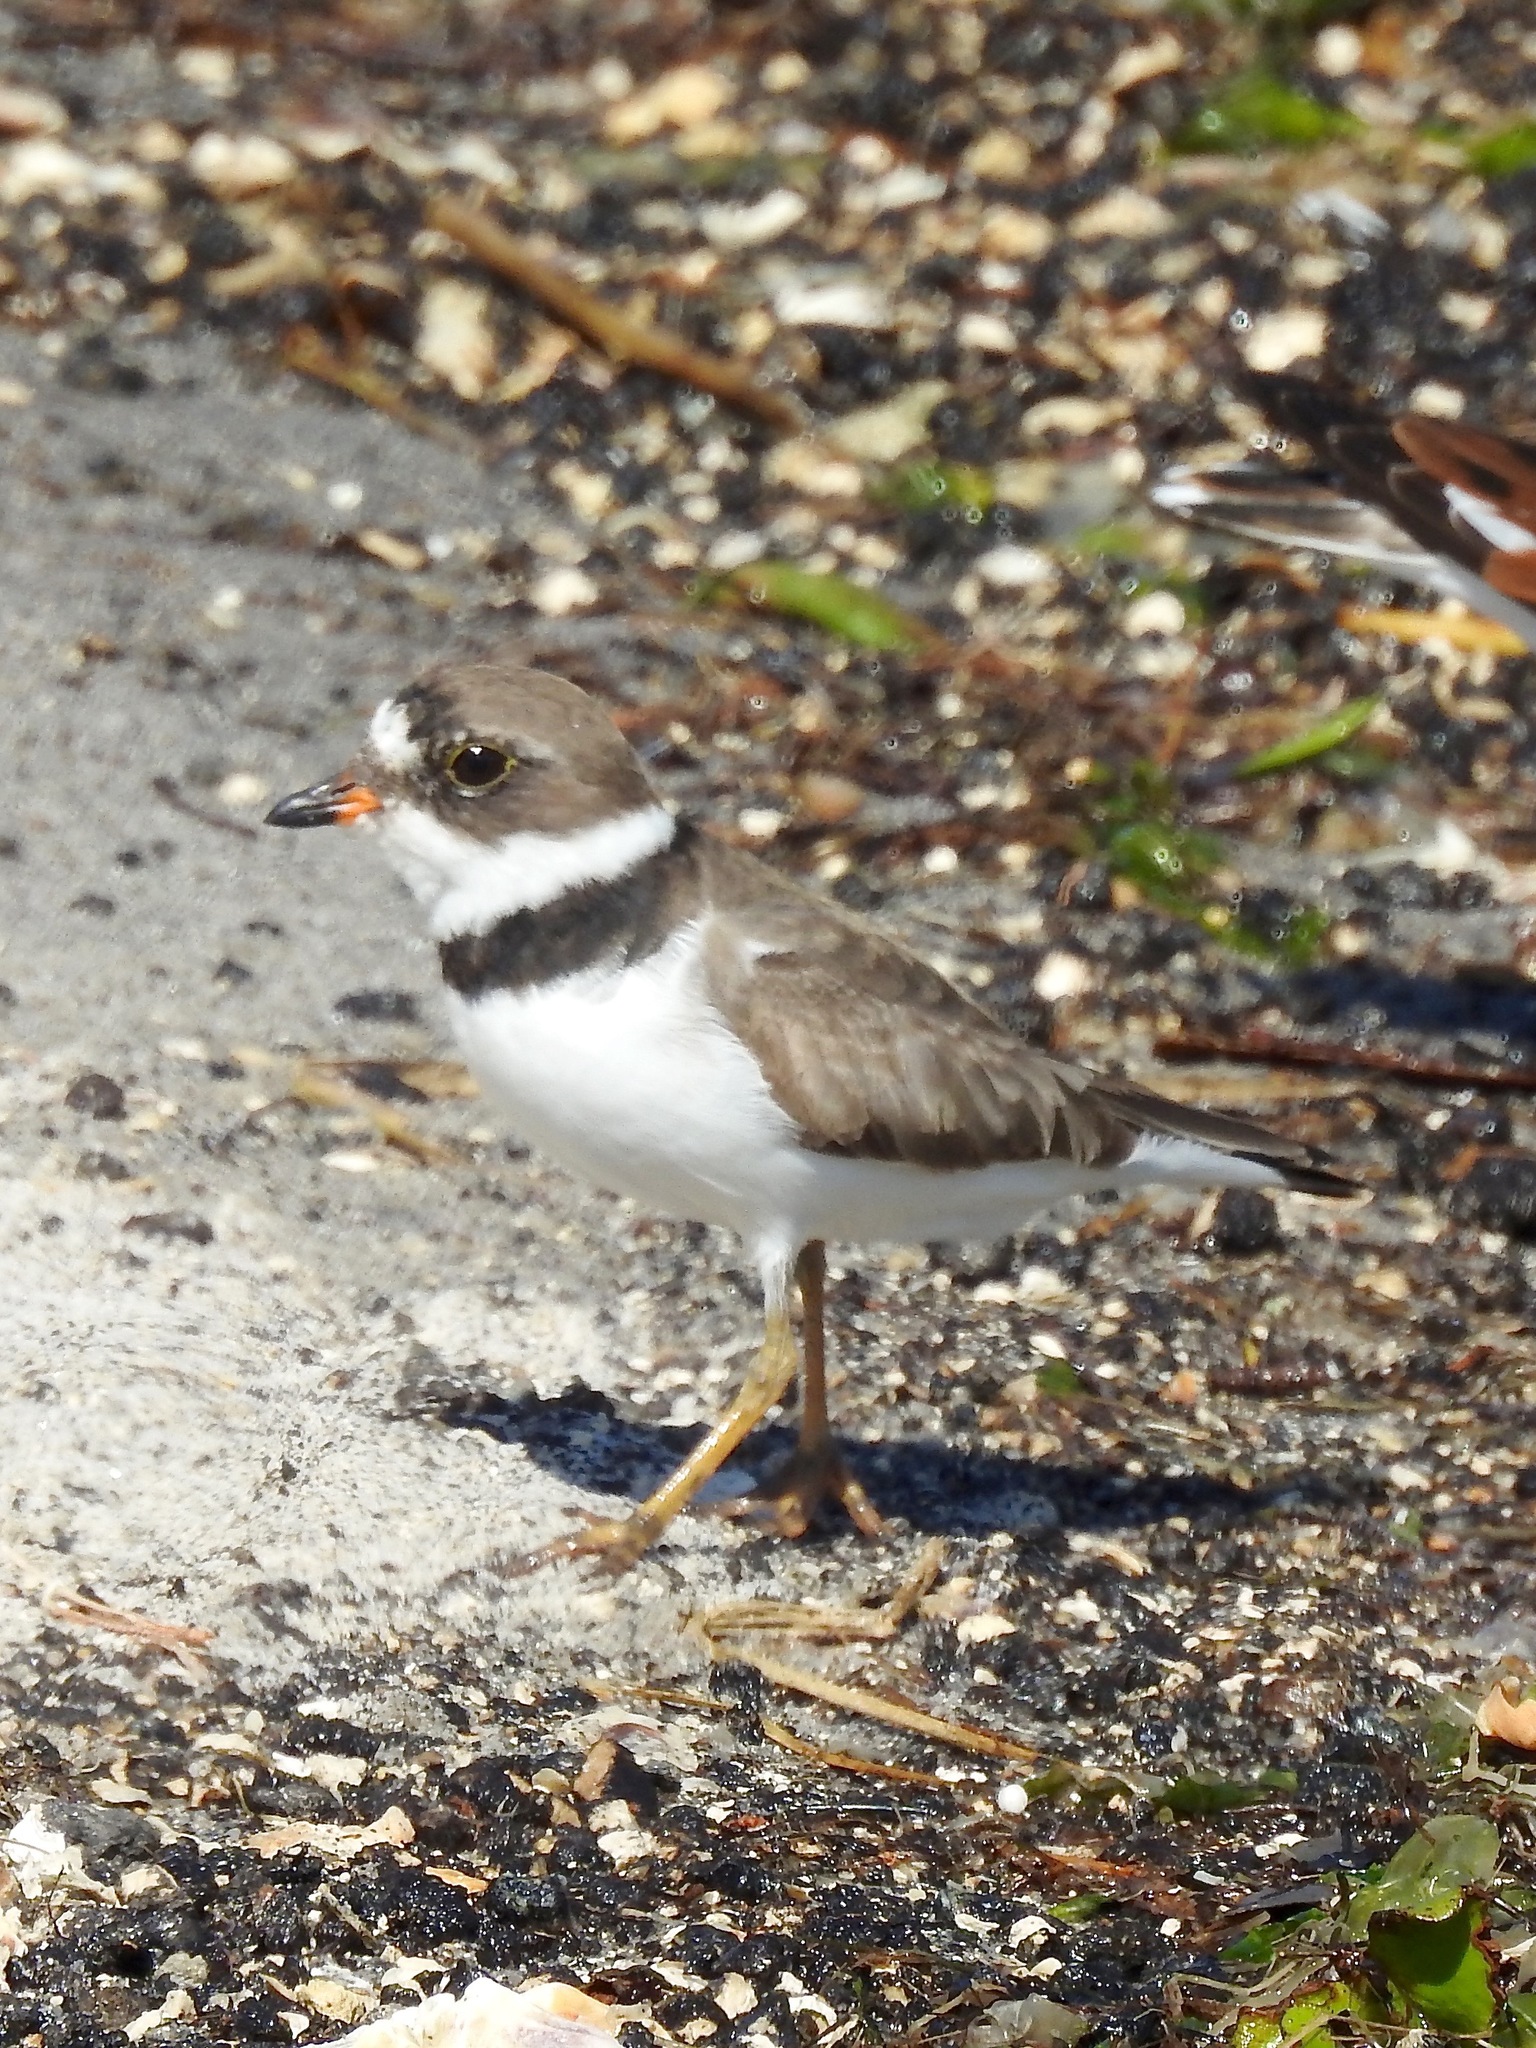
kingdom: Animalia
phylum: Chordata
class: Aves
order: Charadriiformes
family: Charadriidae
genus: Charadrius
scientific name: Charadrius semipalmatus
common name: Semipalmated plover
